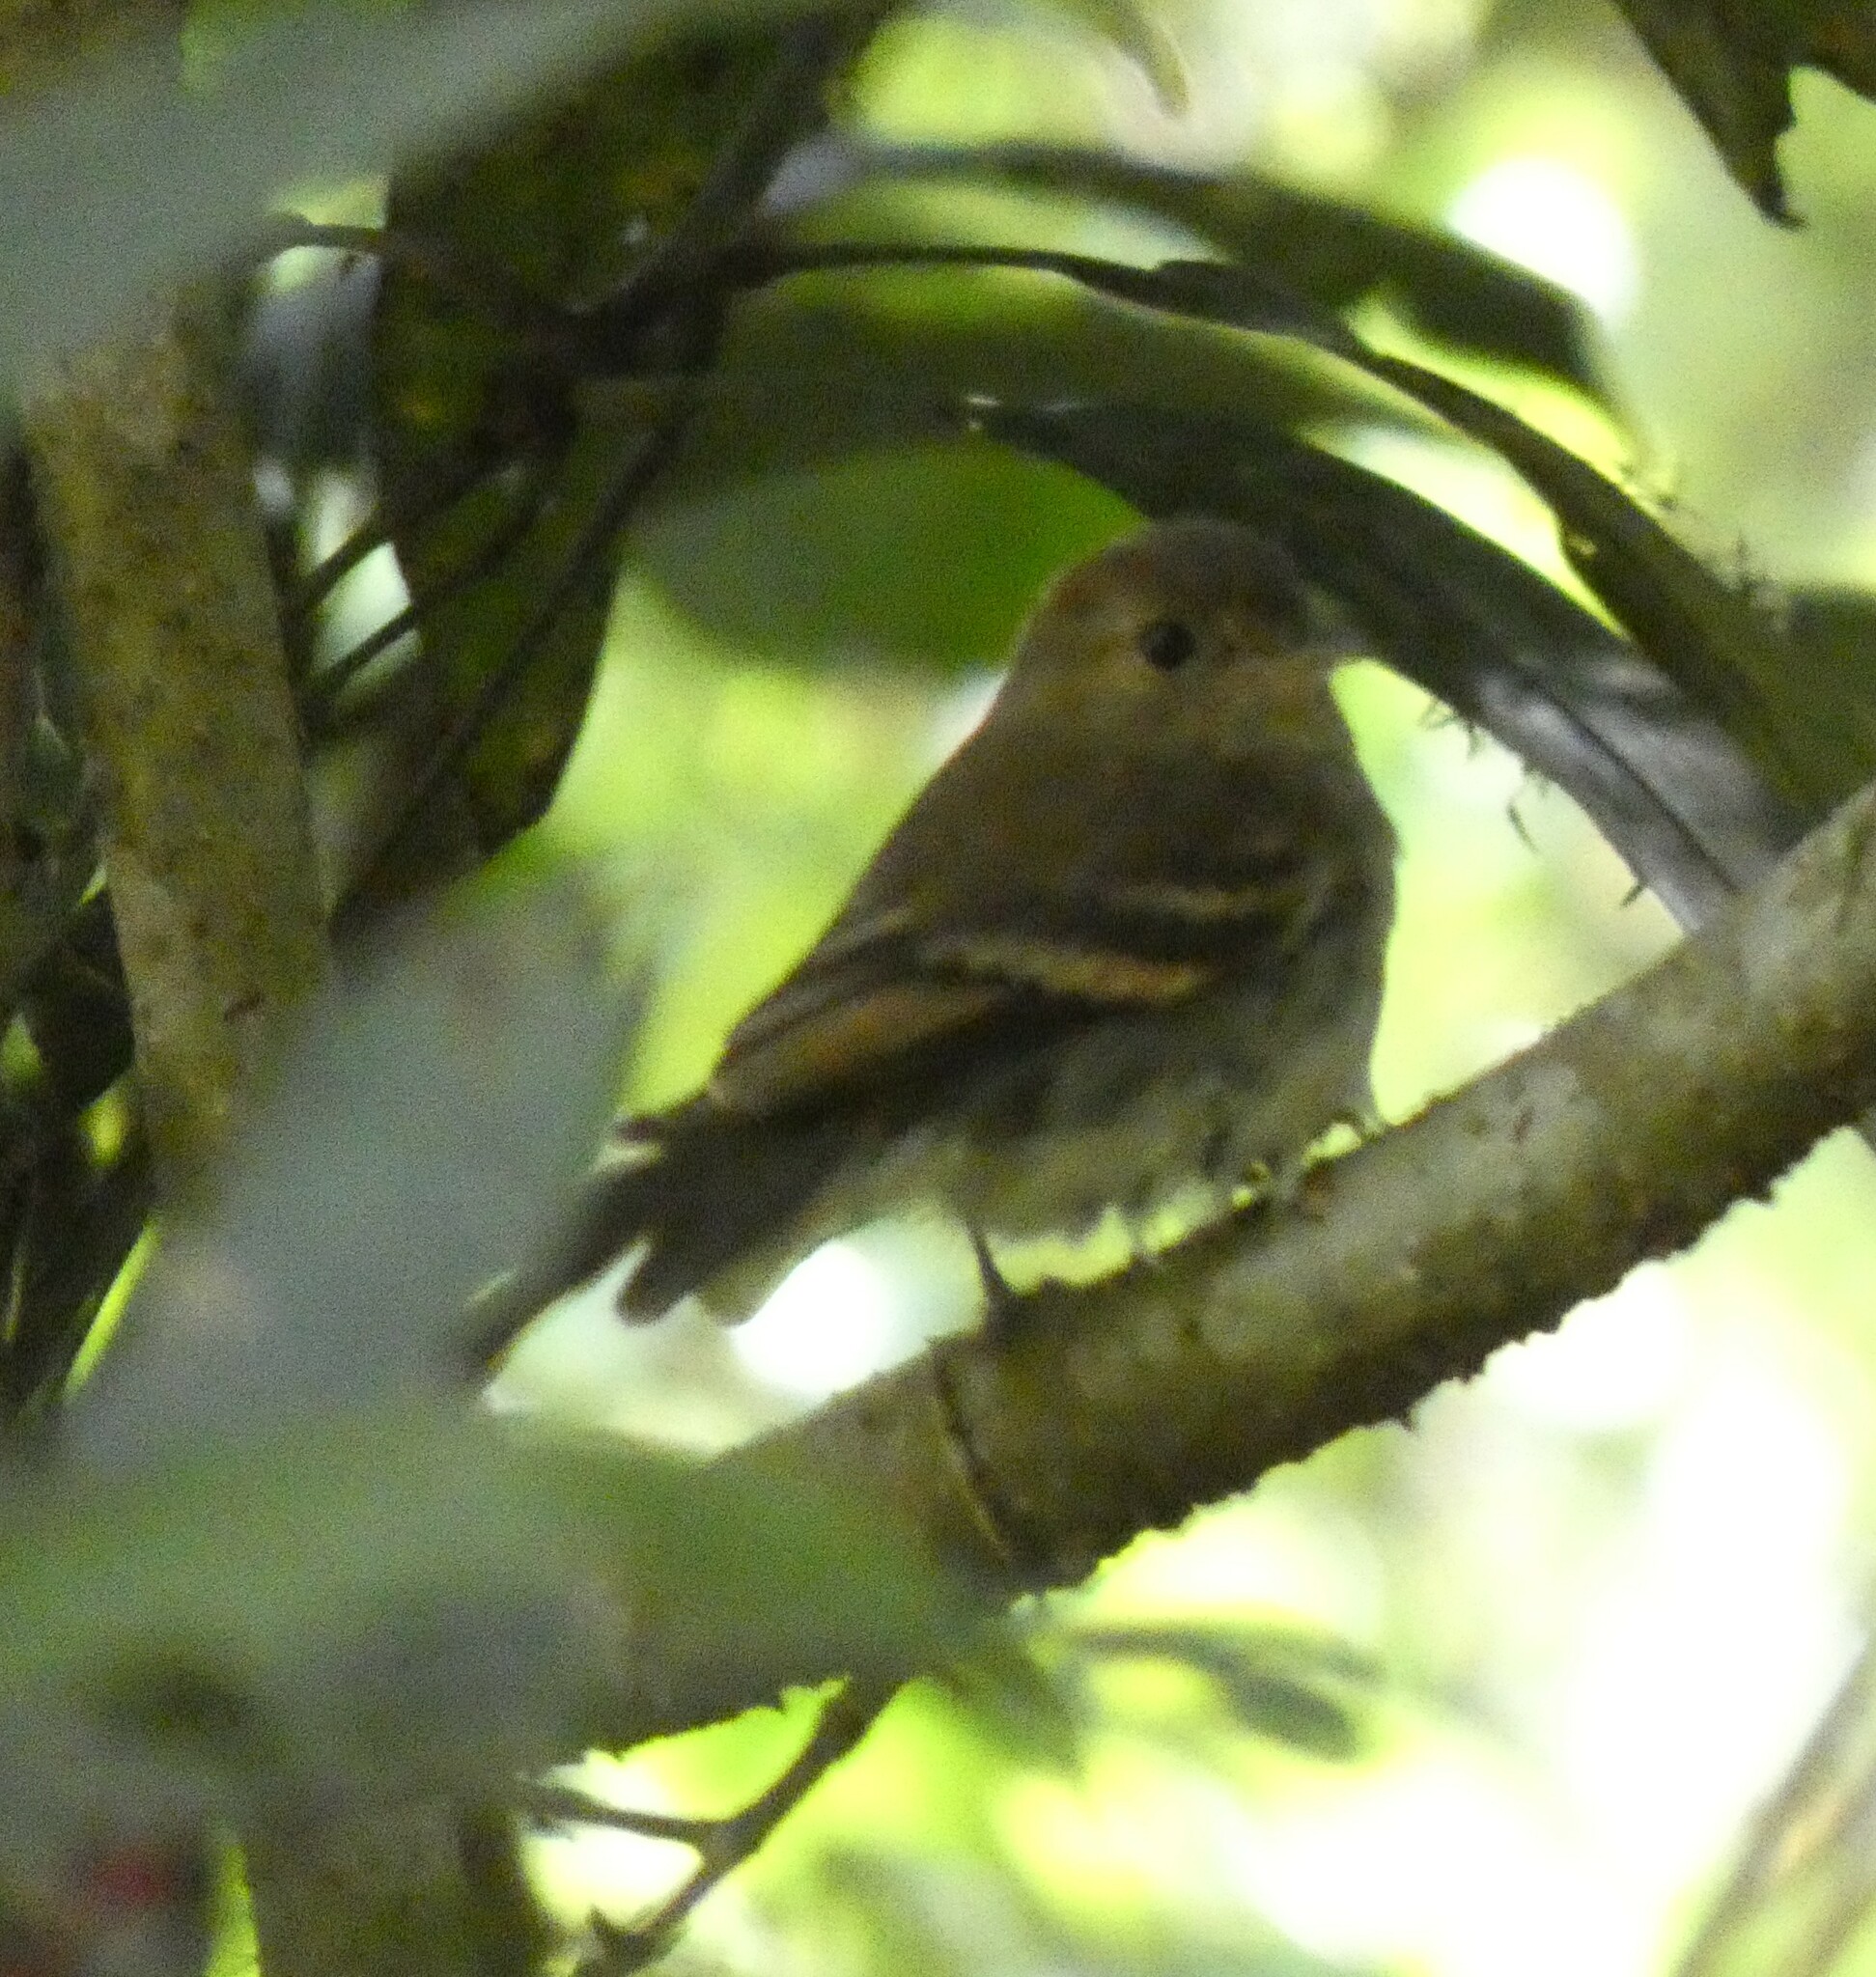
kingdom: Animalia
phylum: Chordata
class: Aves
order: Passeriformes
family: Tyrannidae
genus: Lathrotriccus
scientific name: Lathrotriccus euleri
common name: Euler's flycatcher
